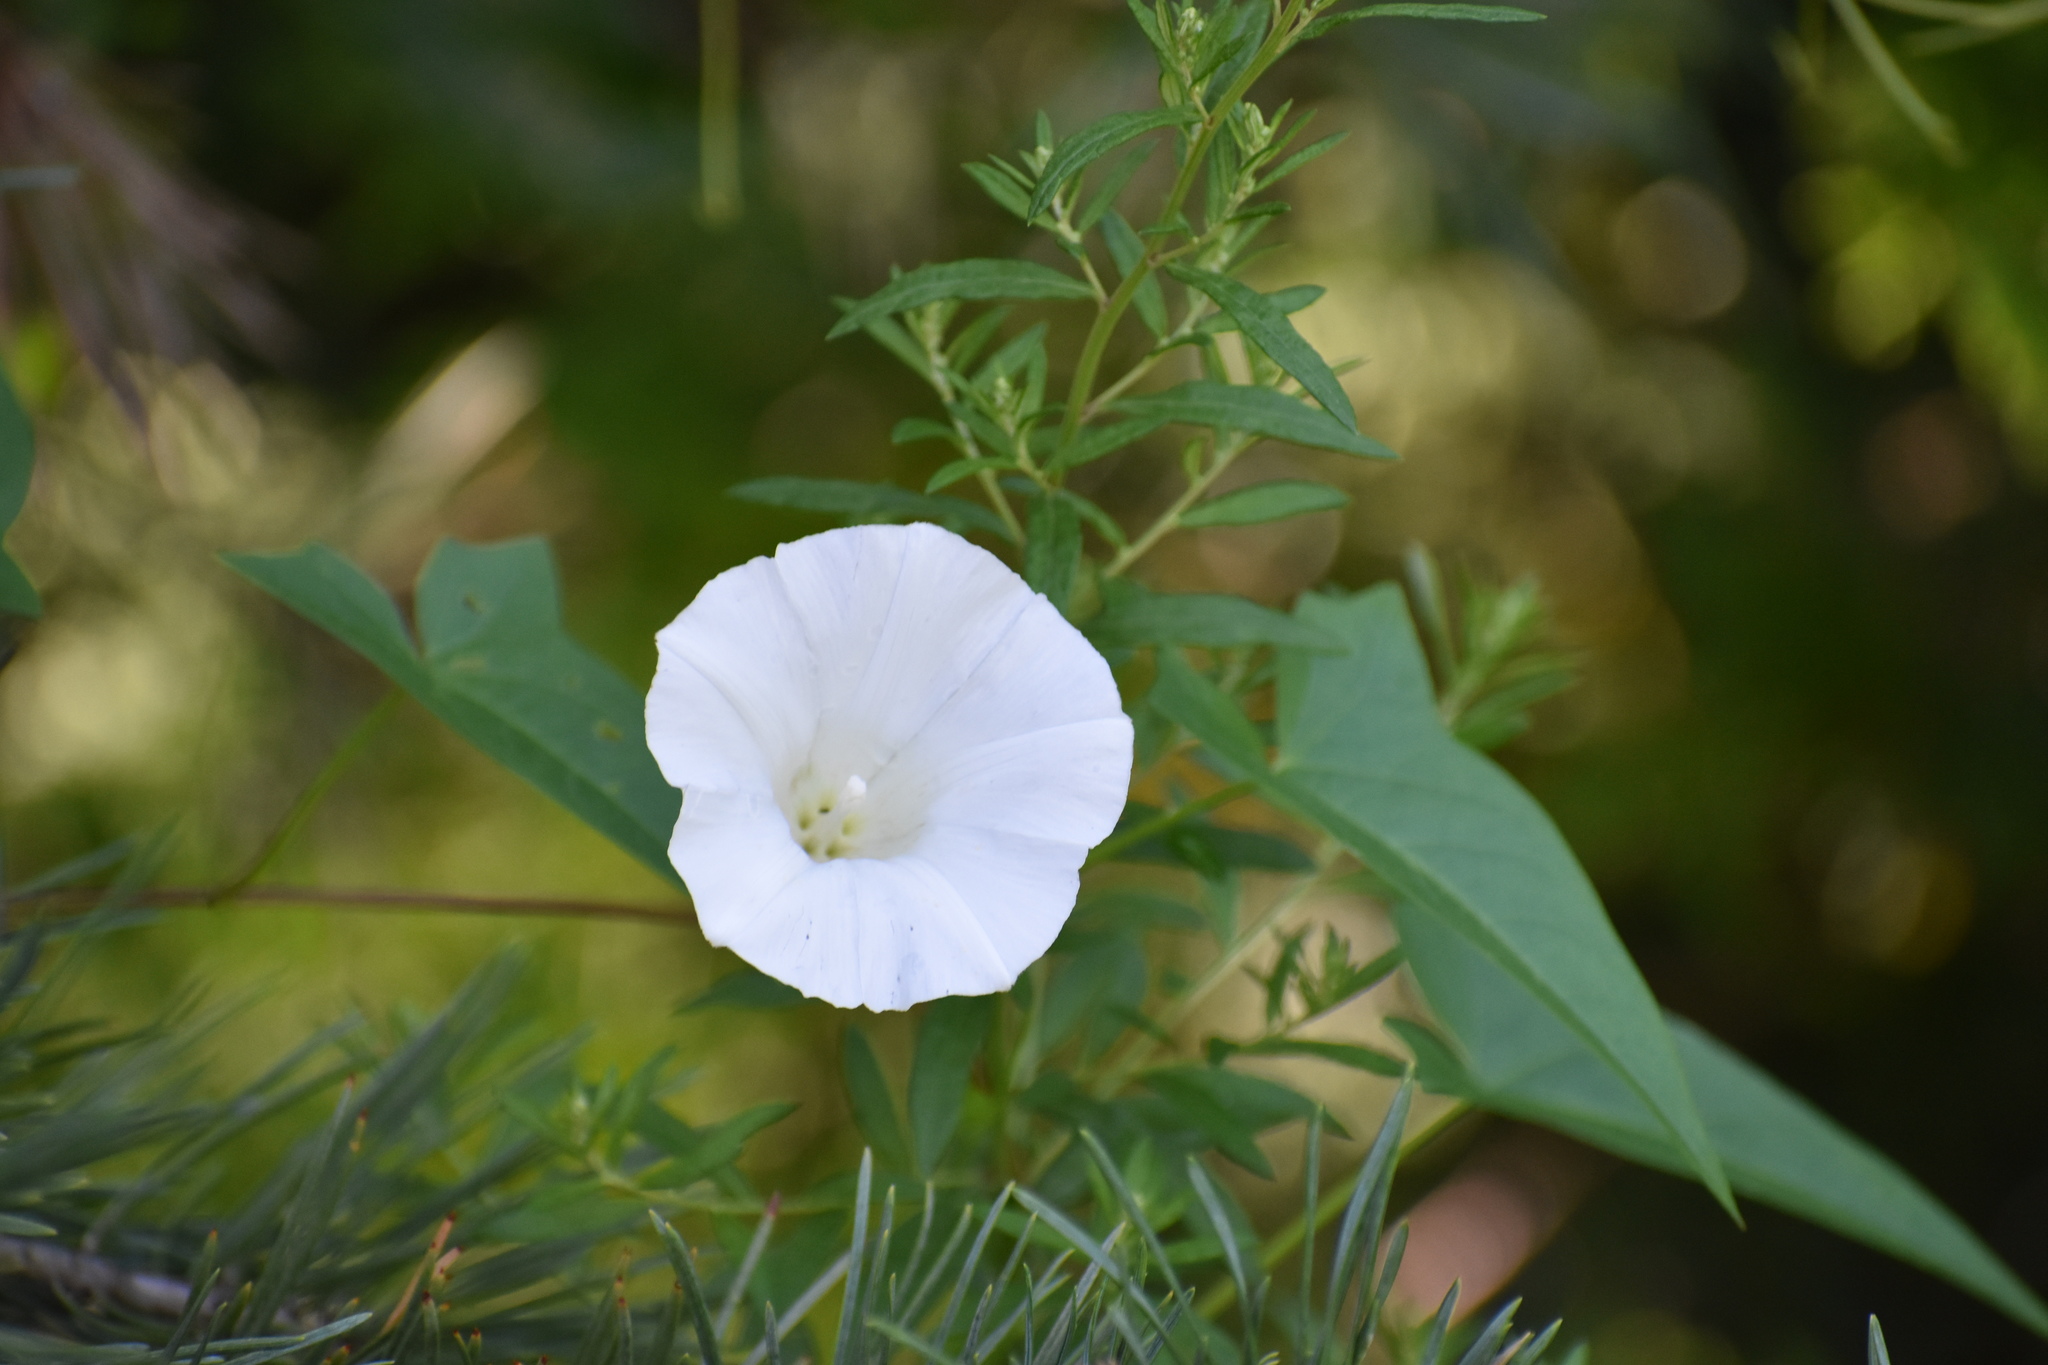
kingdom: Plantae
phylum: Tracheophyta
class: Magnoliopsida
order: Solanales
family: Convolvulaceae
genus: Calystegia
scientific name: Calystegia sepium
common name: Hedge bindweed
